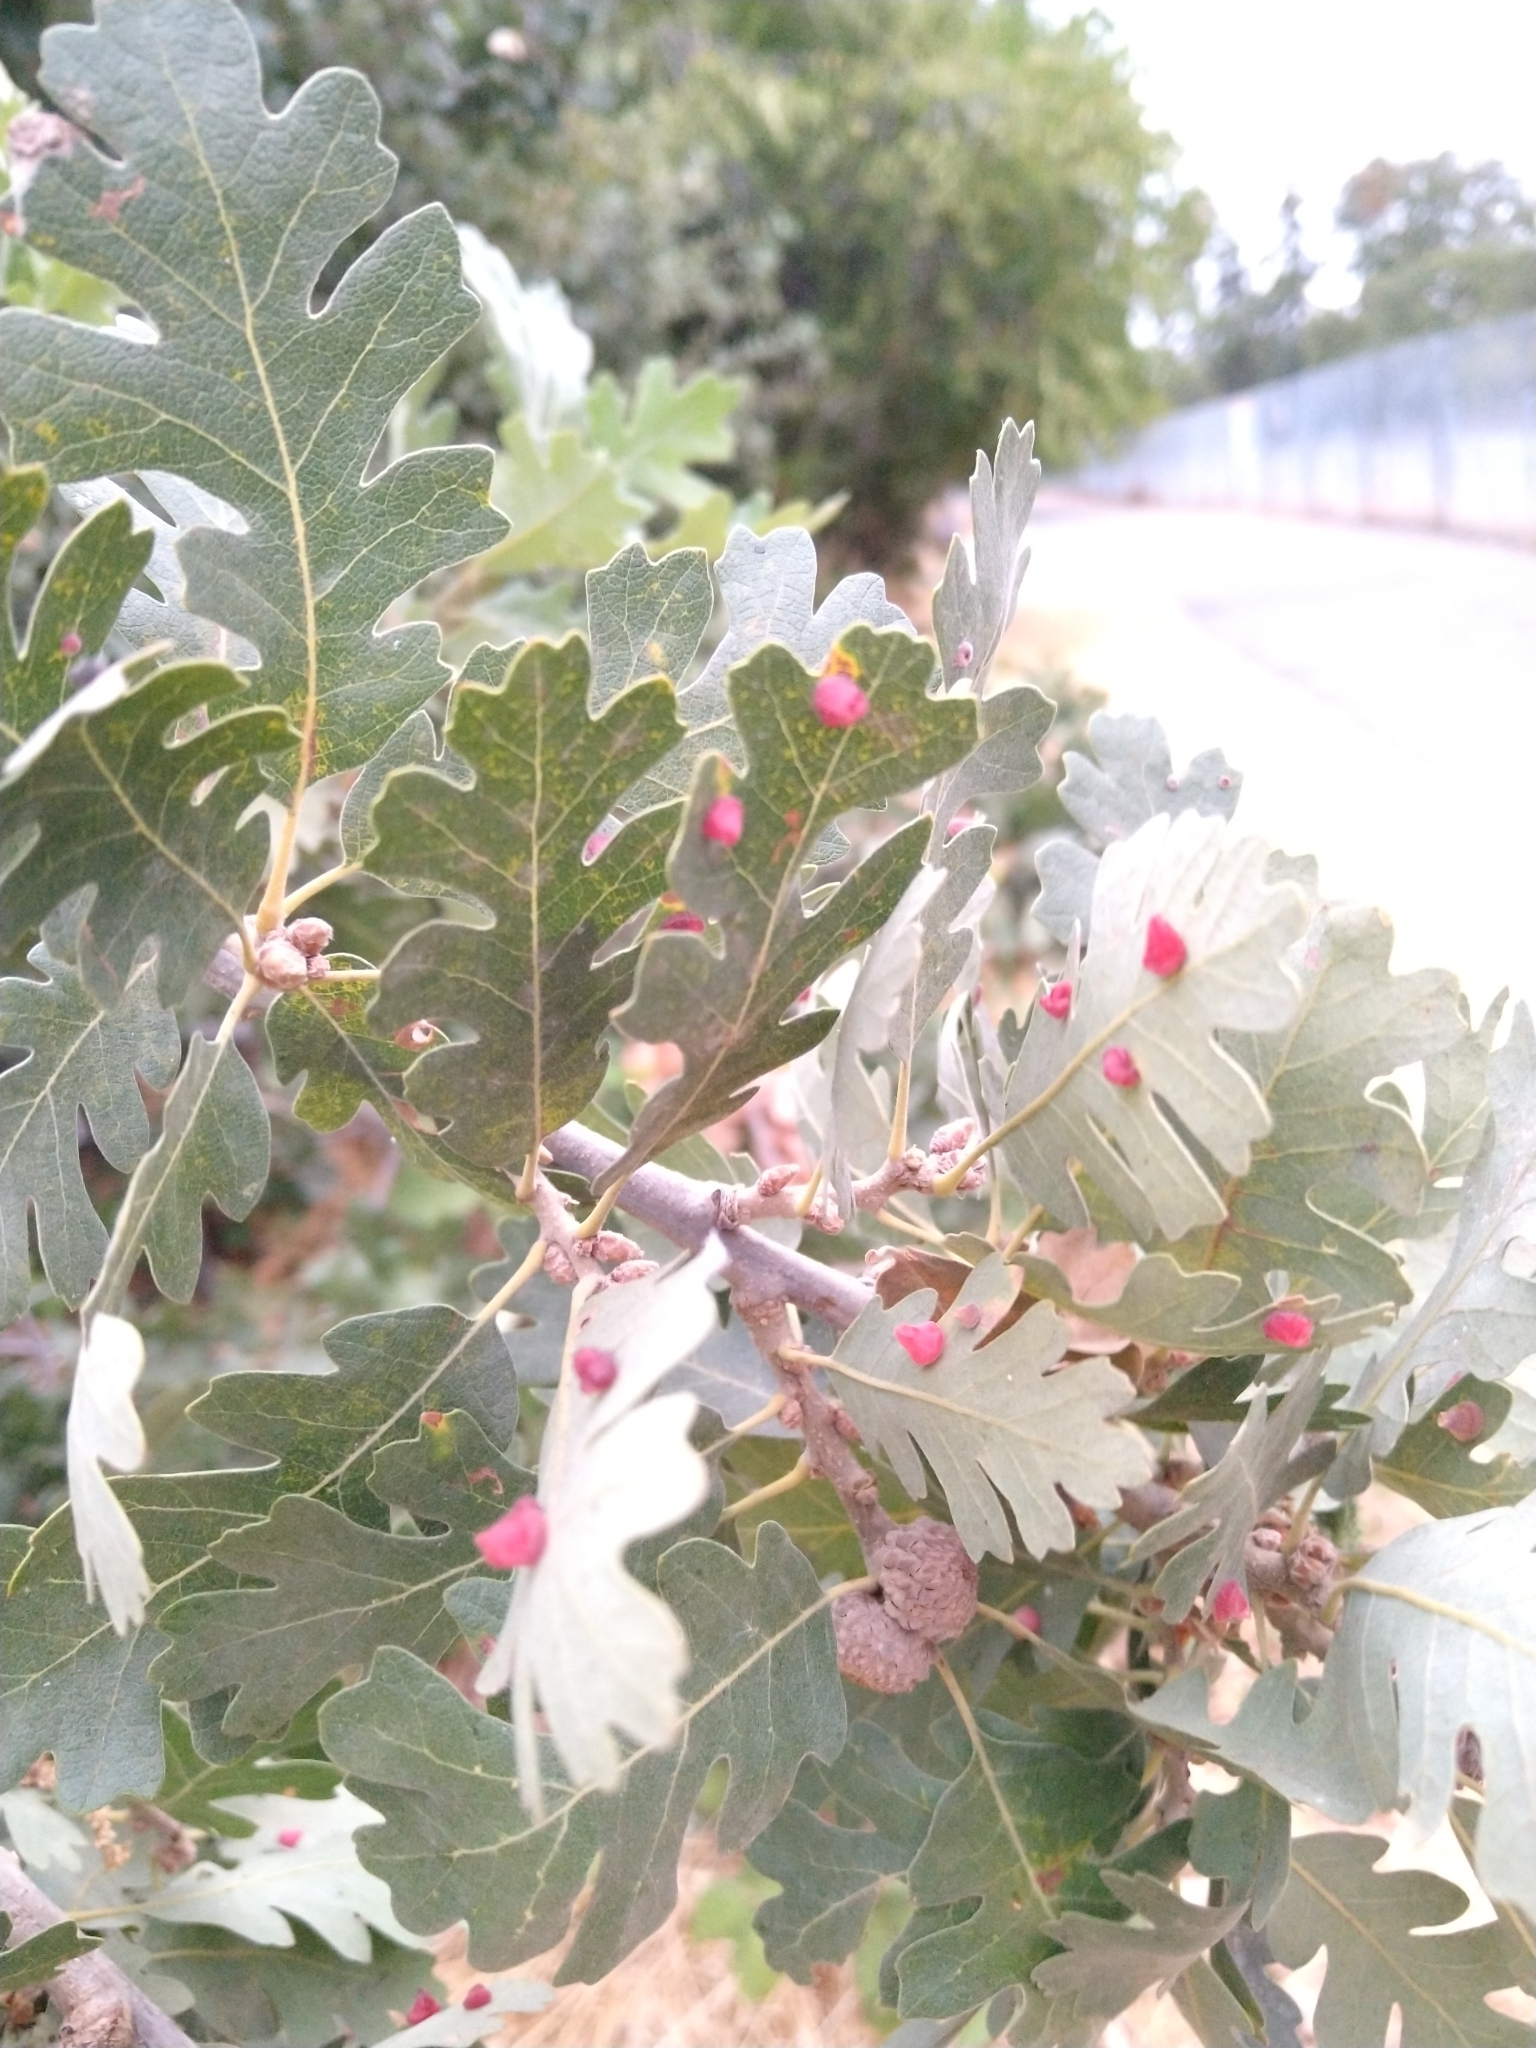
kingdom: Animalia
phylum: Arthropoda
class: Insecta
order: Hymenoptera
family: Cynipidae
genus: Andricus
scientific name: Andricus
